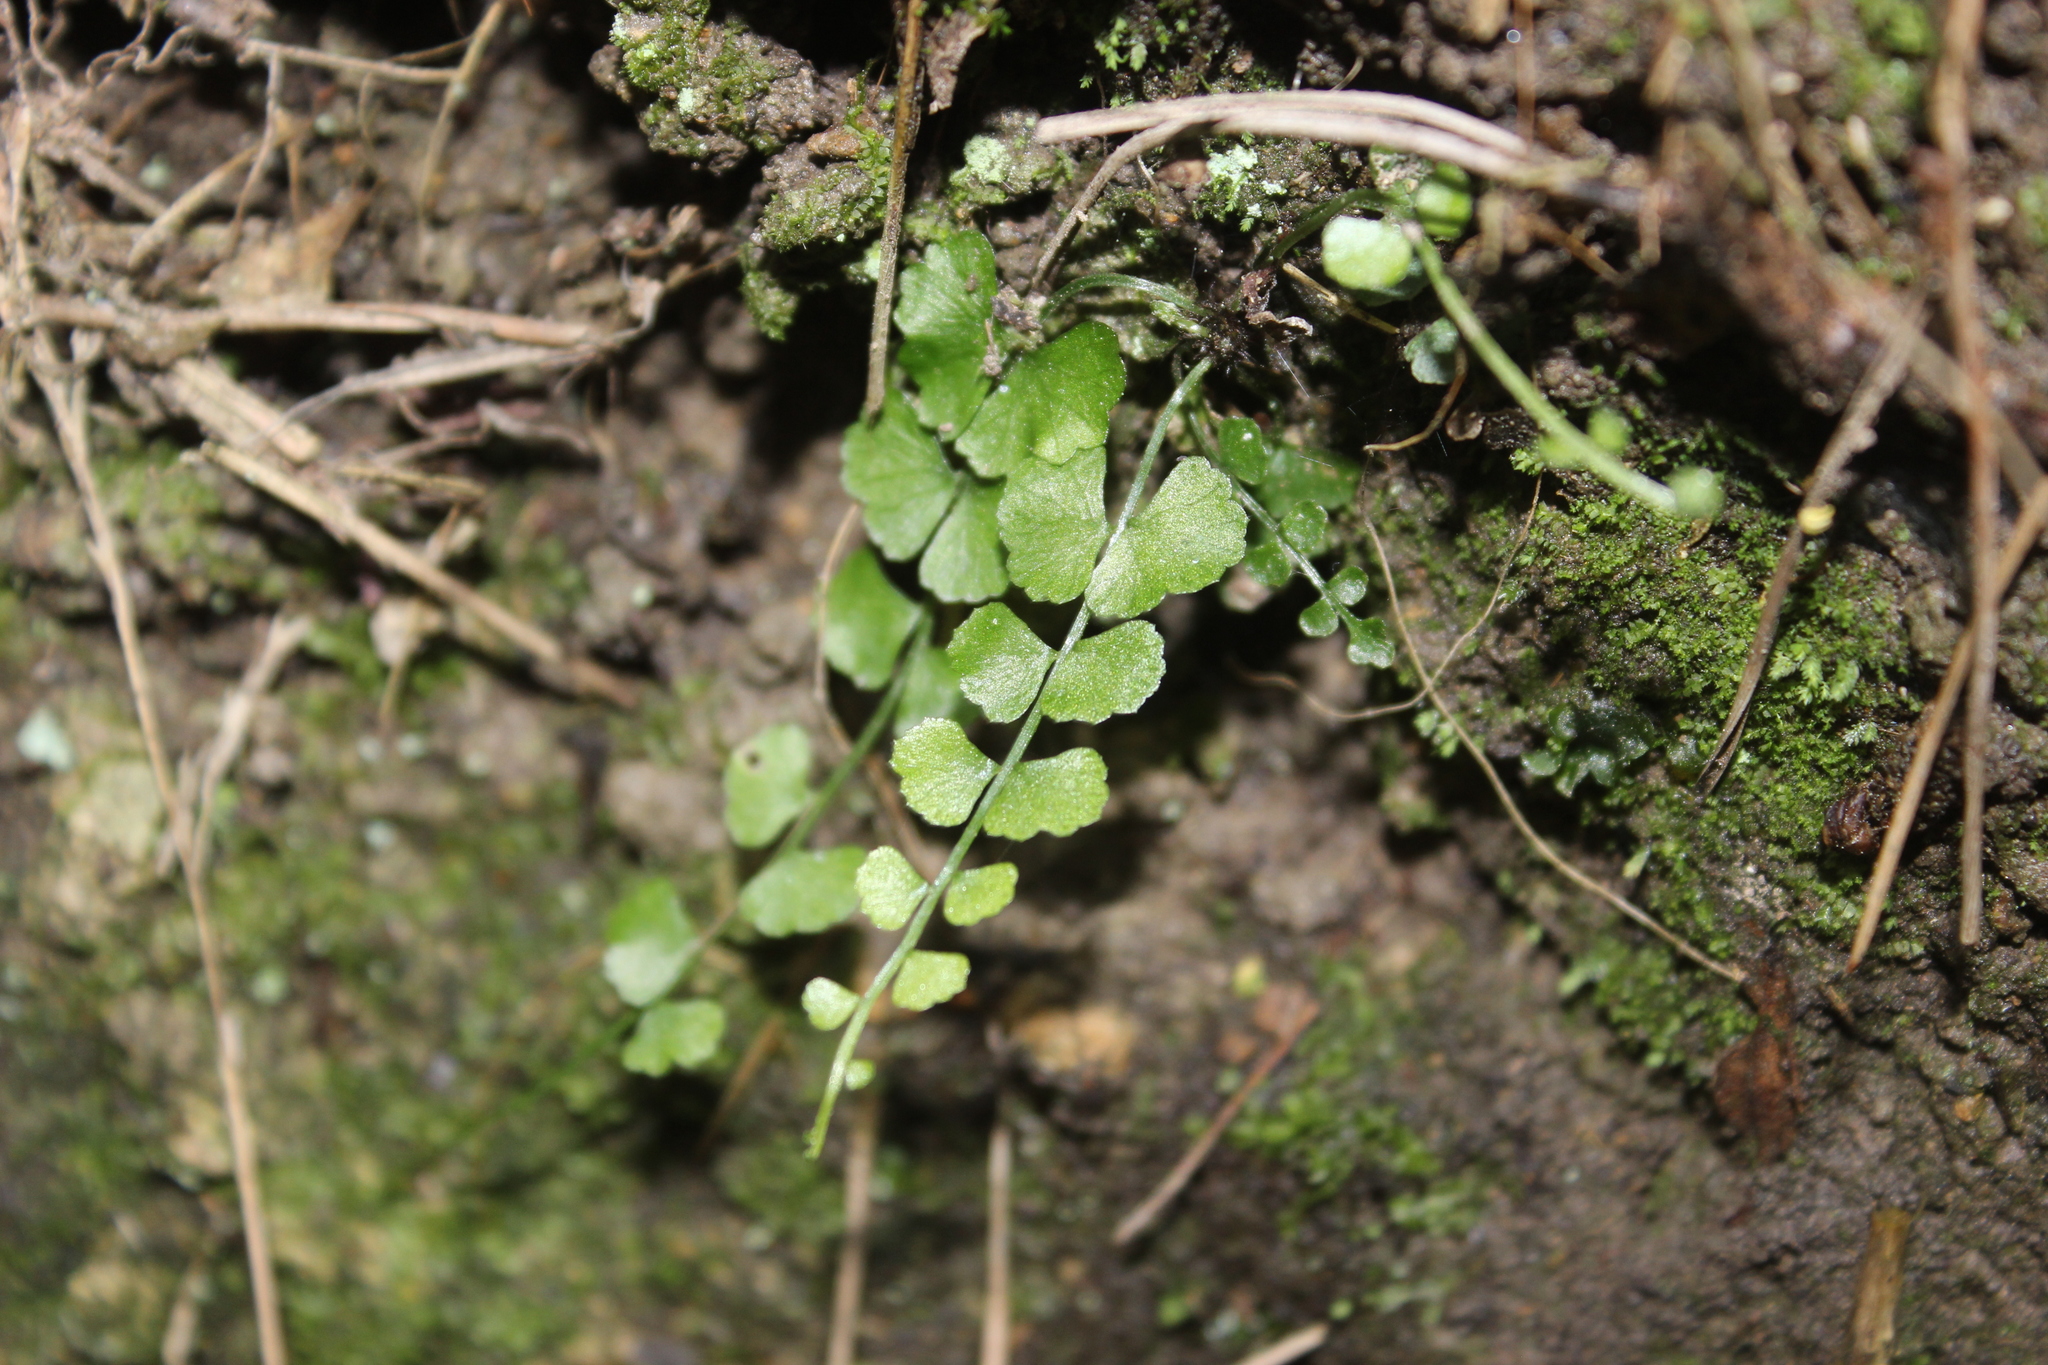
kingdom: Plantae
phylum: Tracheophyta
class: Polypodiopsida
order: Polypodiales
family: Aspleniaceae
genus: Asplenium
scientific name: Asplenium flabellifolium
